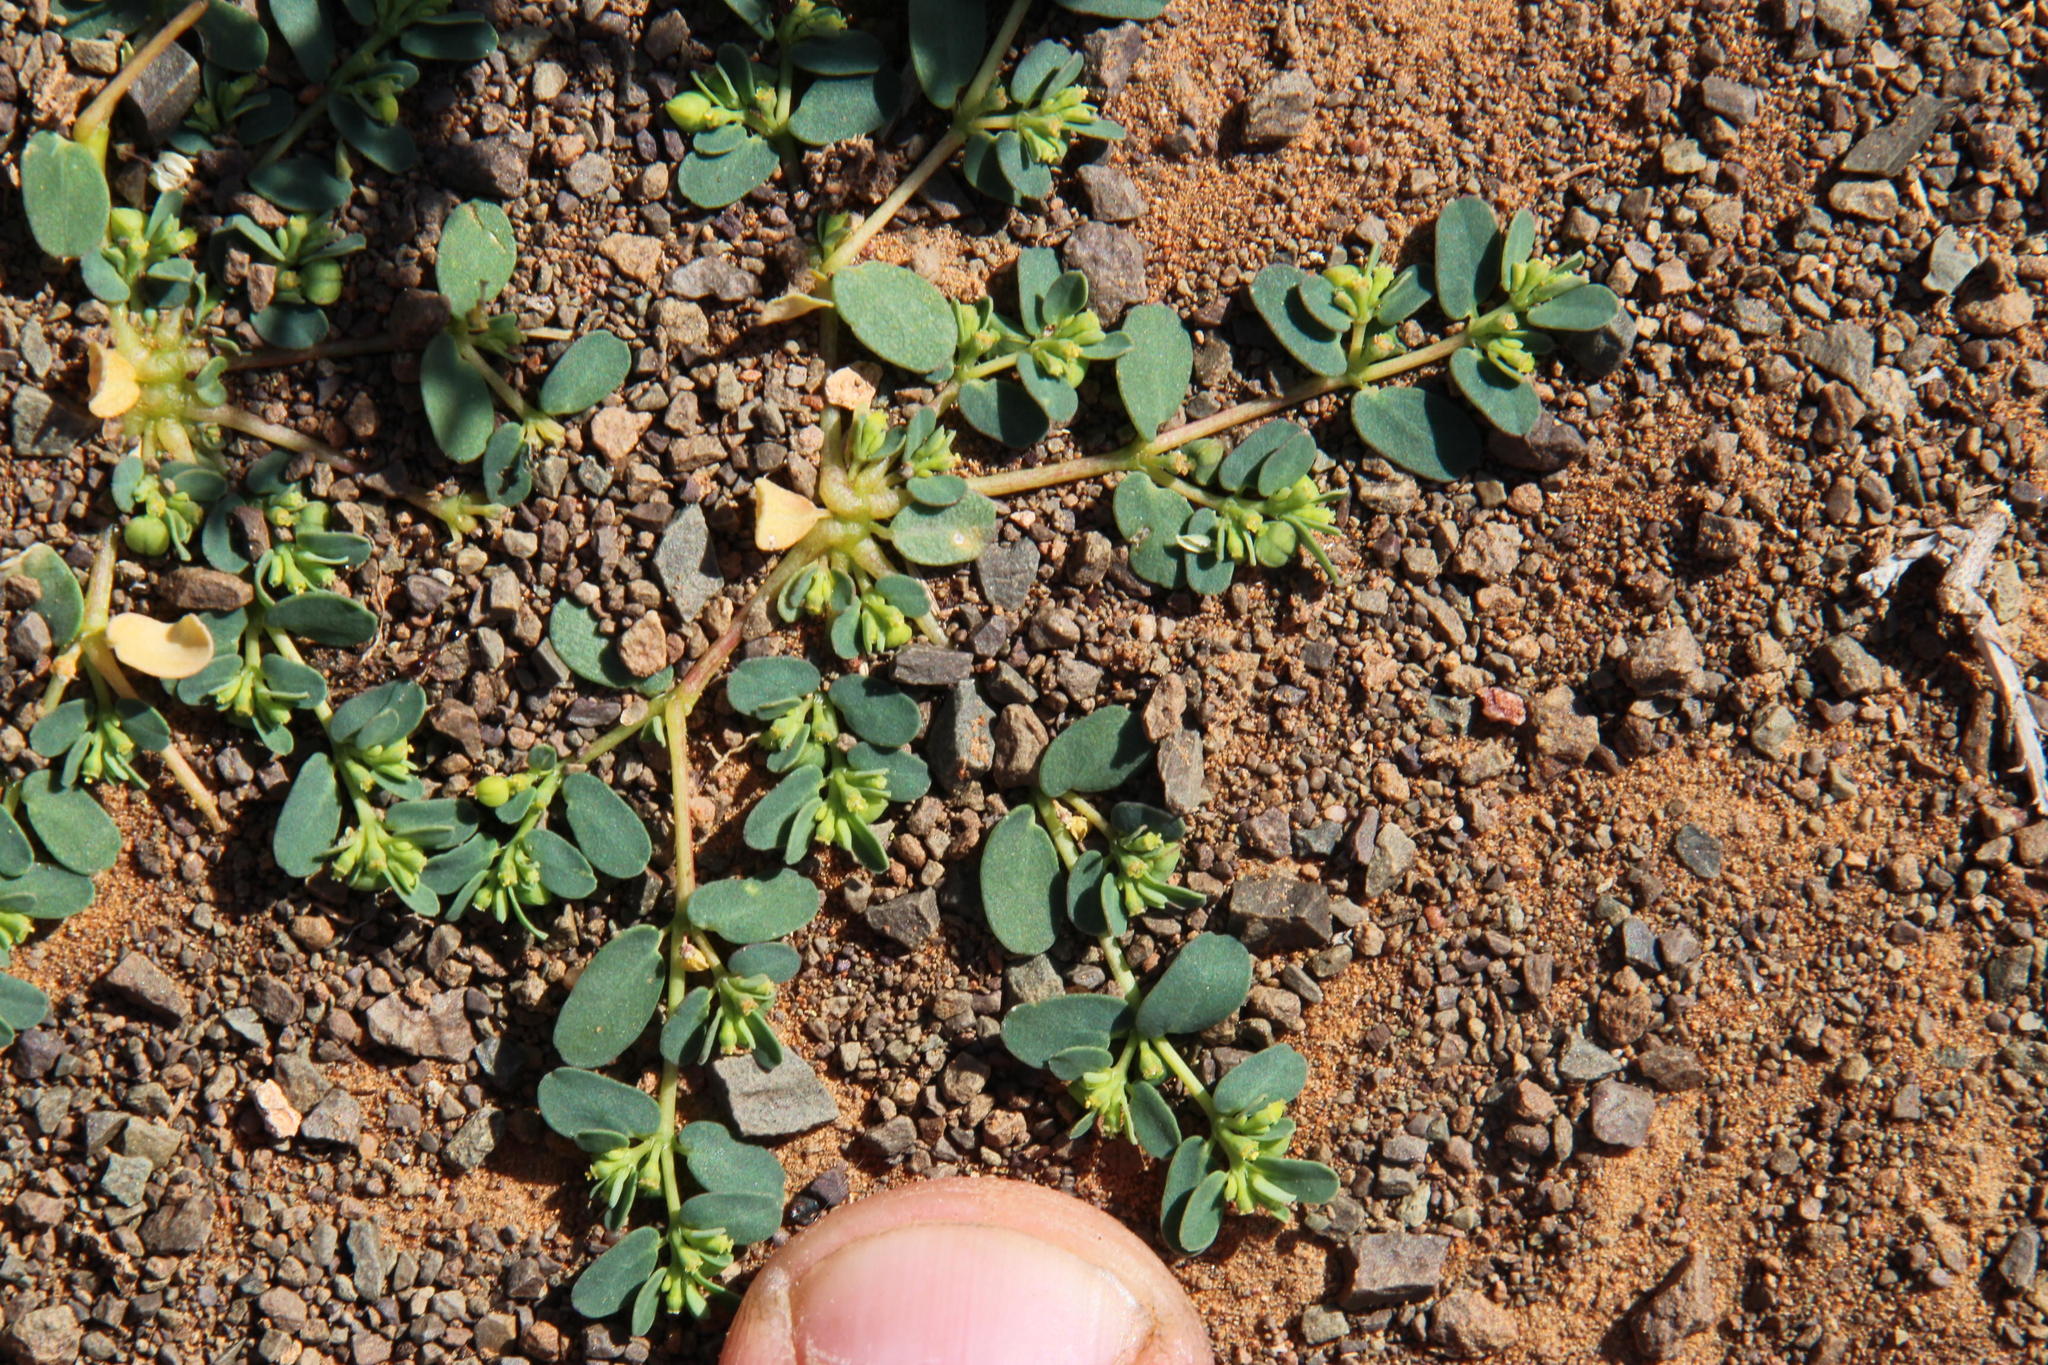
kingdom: Plantae
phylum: Tracheophyta
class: Magnoliopsida
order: Malpighiales
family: Euphorbiaceae
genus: Euphorbia
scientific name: Euphorbia inaequilatera
